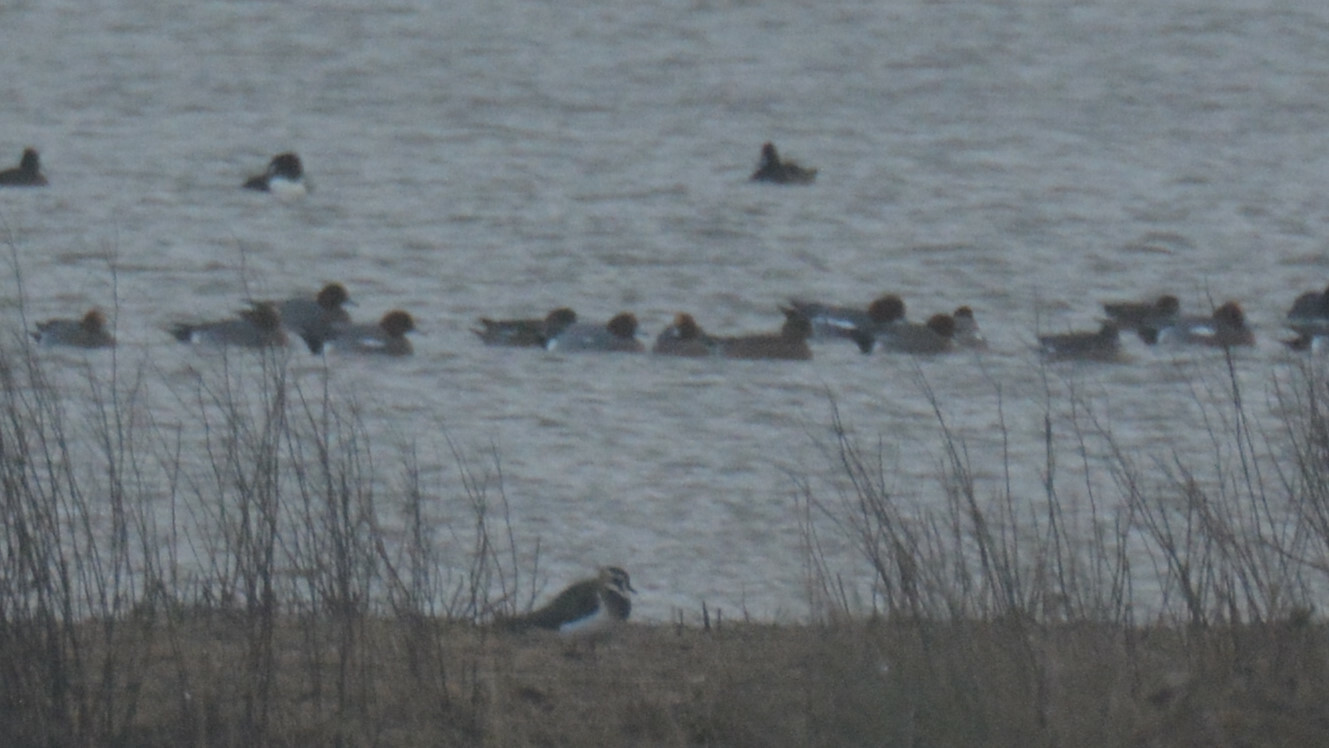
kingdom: Animalia
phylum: Chordata
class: Aves
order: Anseriformes
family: Anatidae
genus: Mareca
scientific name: Mareca penelope
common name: Eurasian wigeon
